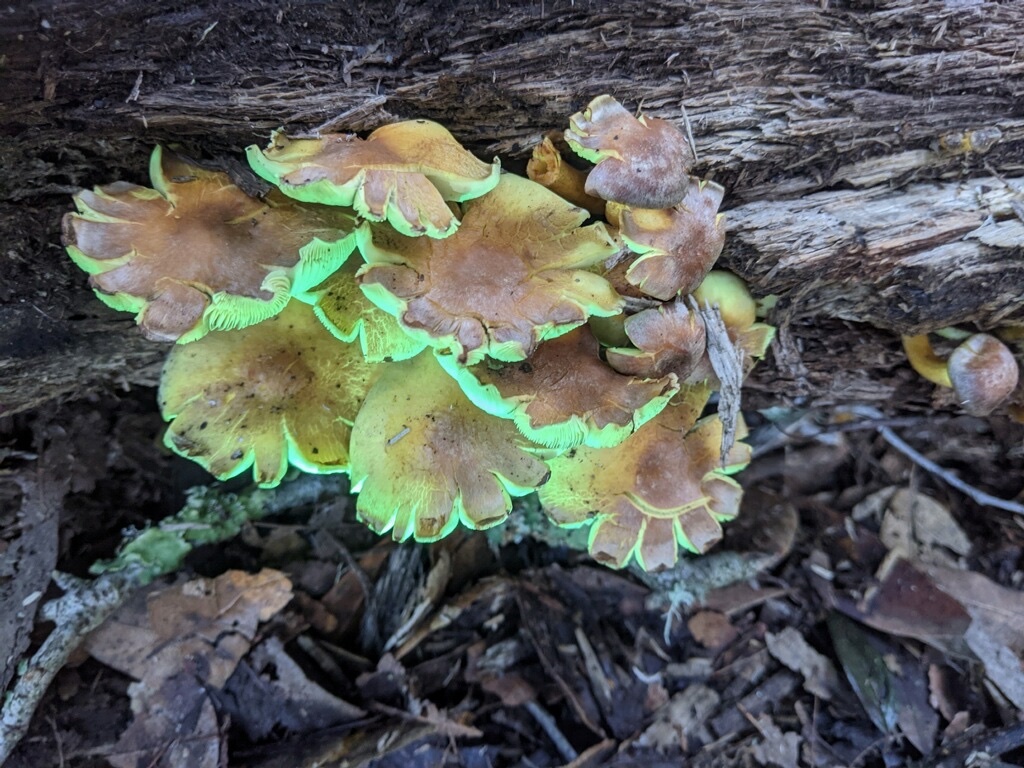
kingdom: Fungi
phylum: Basidiomycota
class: Agaricomycetes
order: Agaricales
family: Strophariaceae
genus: Hypholoma
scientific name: Hypholoma fasciculare
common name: Sulphur tuft
